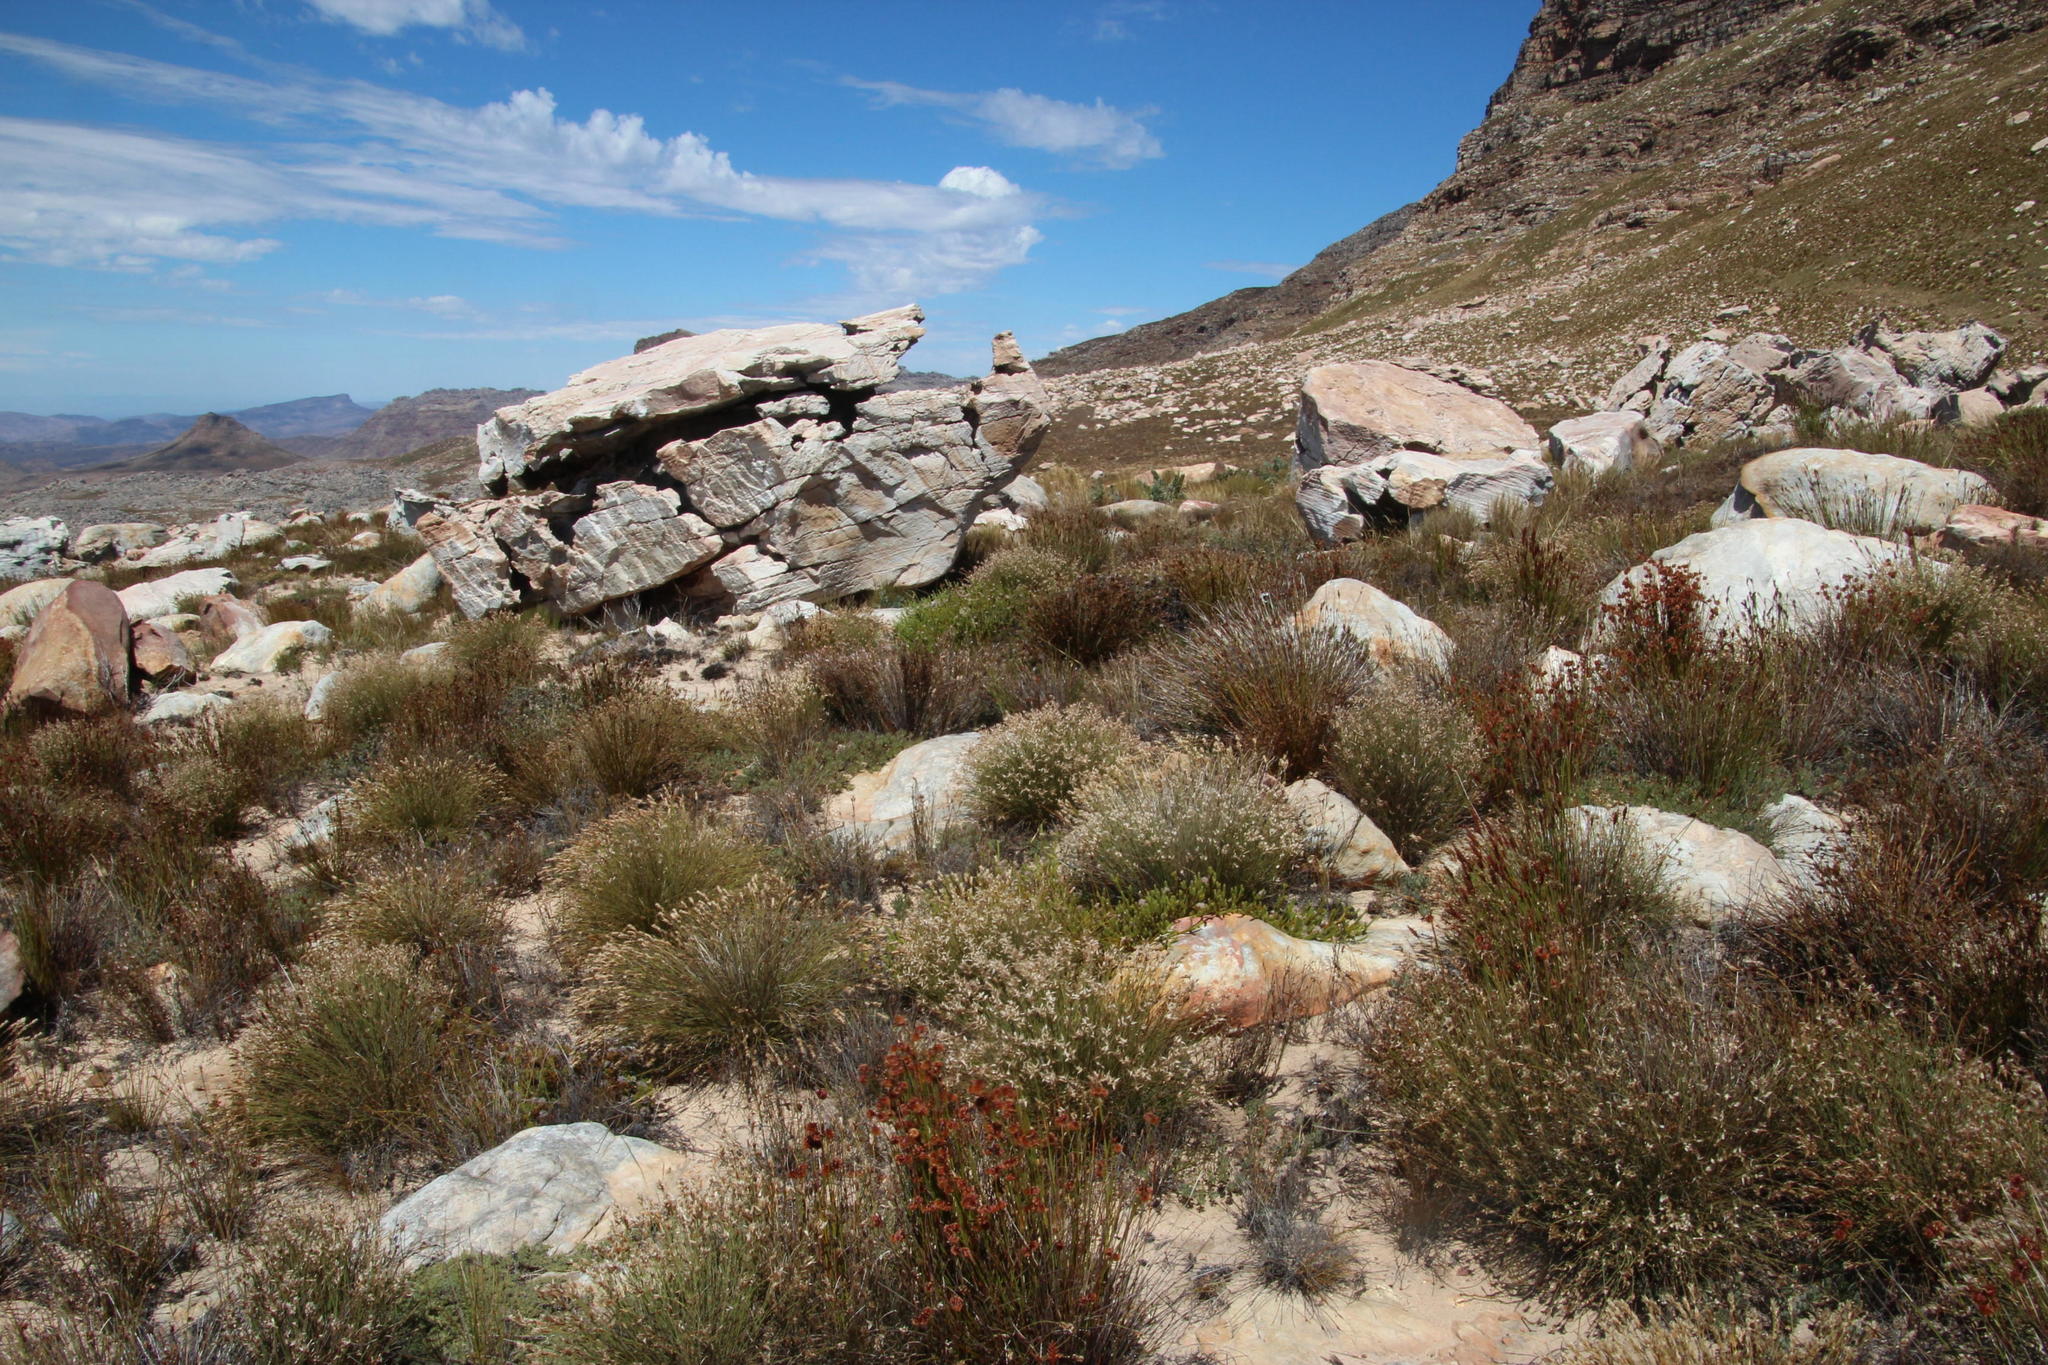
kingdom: Plantae
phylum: Tracheophyta
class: Magnoliopsida
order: Proteales
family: Proteaceae
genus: Sorocephalus
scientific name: Sorocephalus lanatus
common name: Common clusterhead
